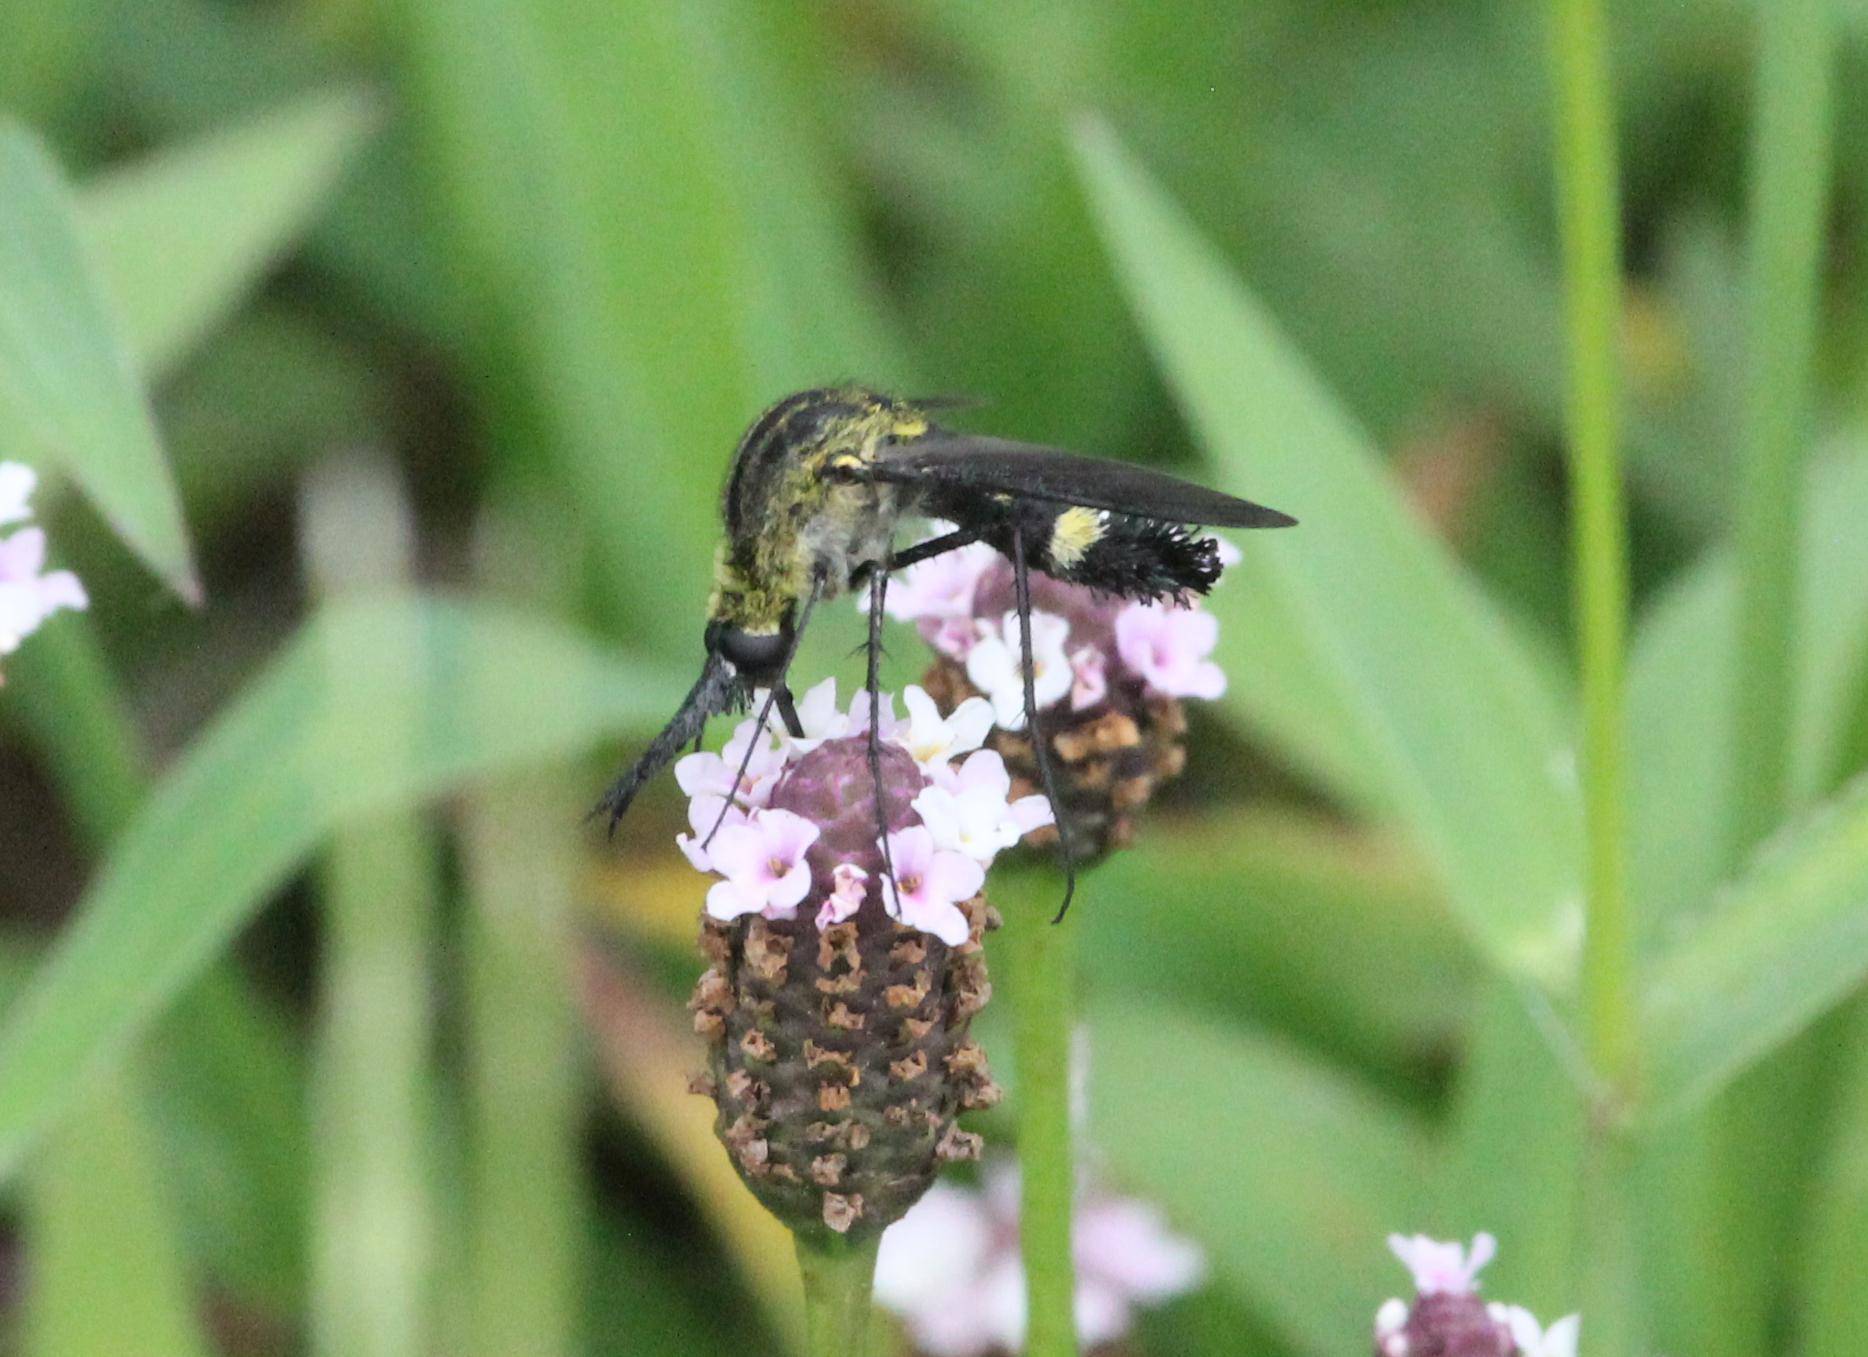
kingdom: Animalia
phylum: Arthropoda
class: Insecta
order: Diptera
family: Bombyliidae
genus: Lepidophora
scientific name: Lepidophora lepidocera
